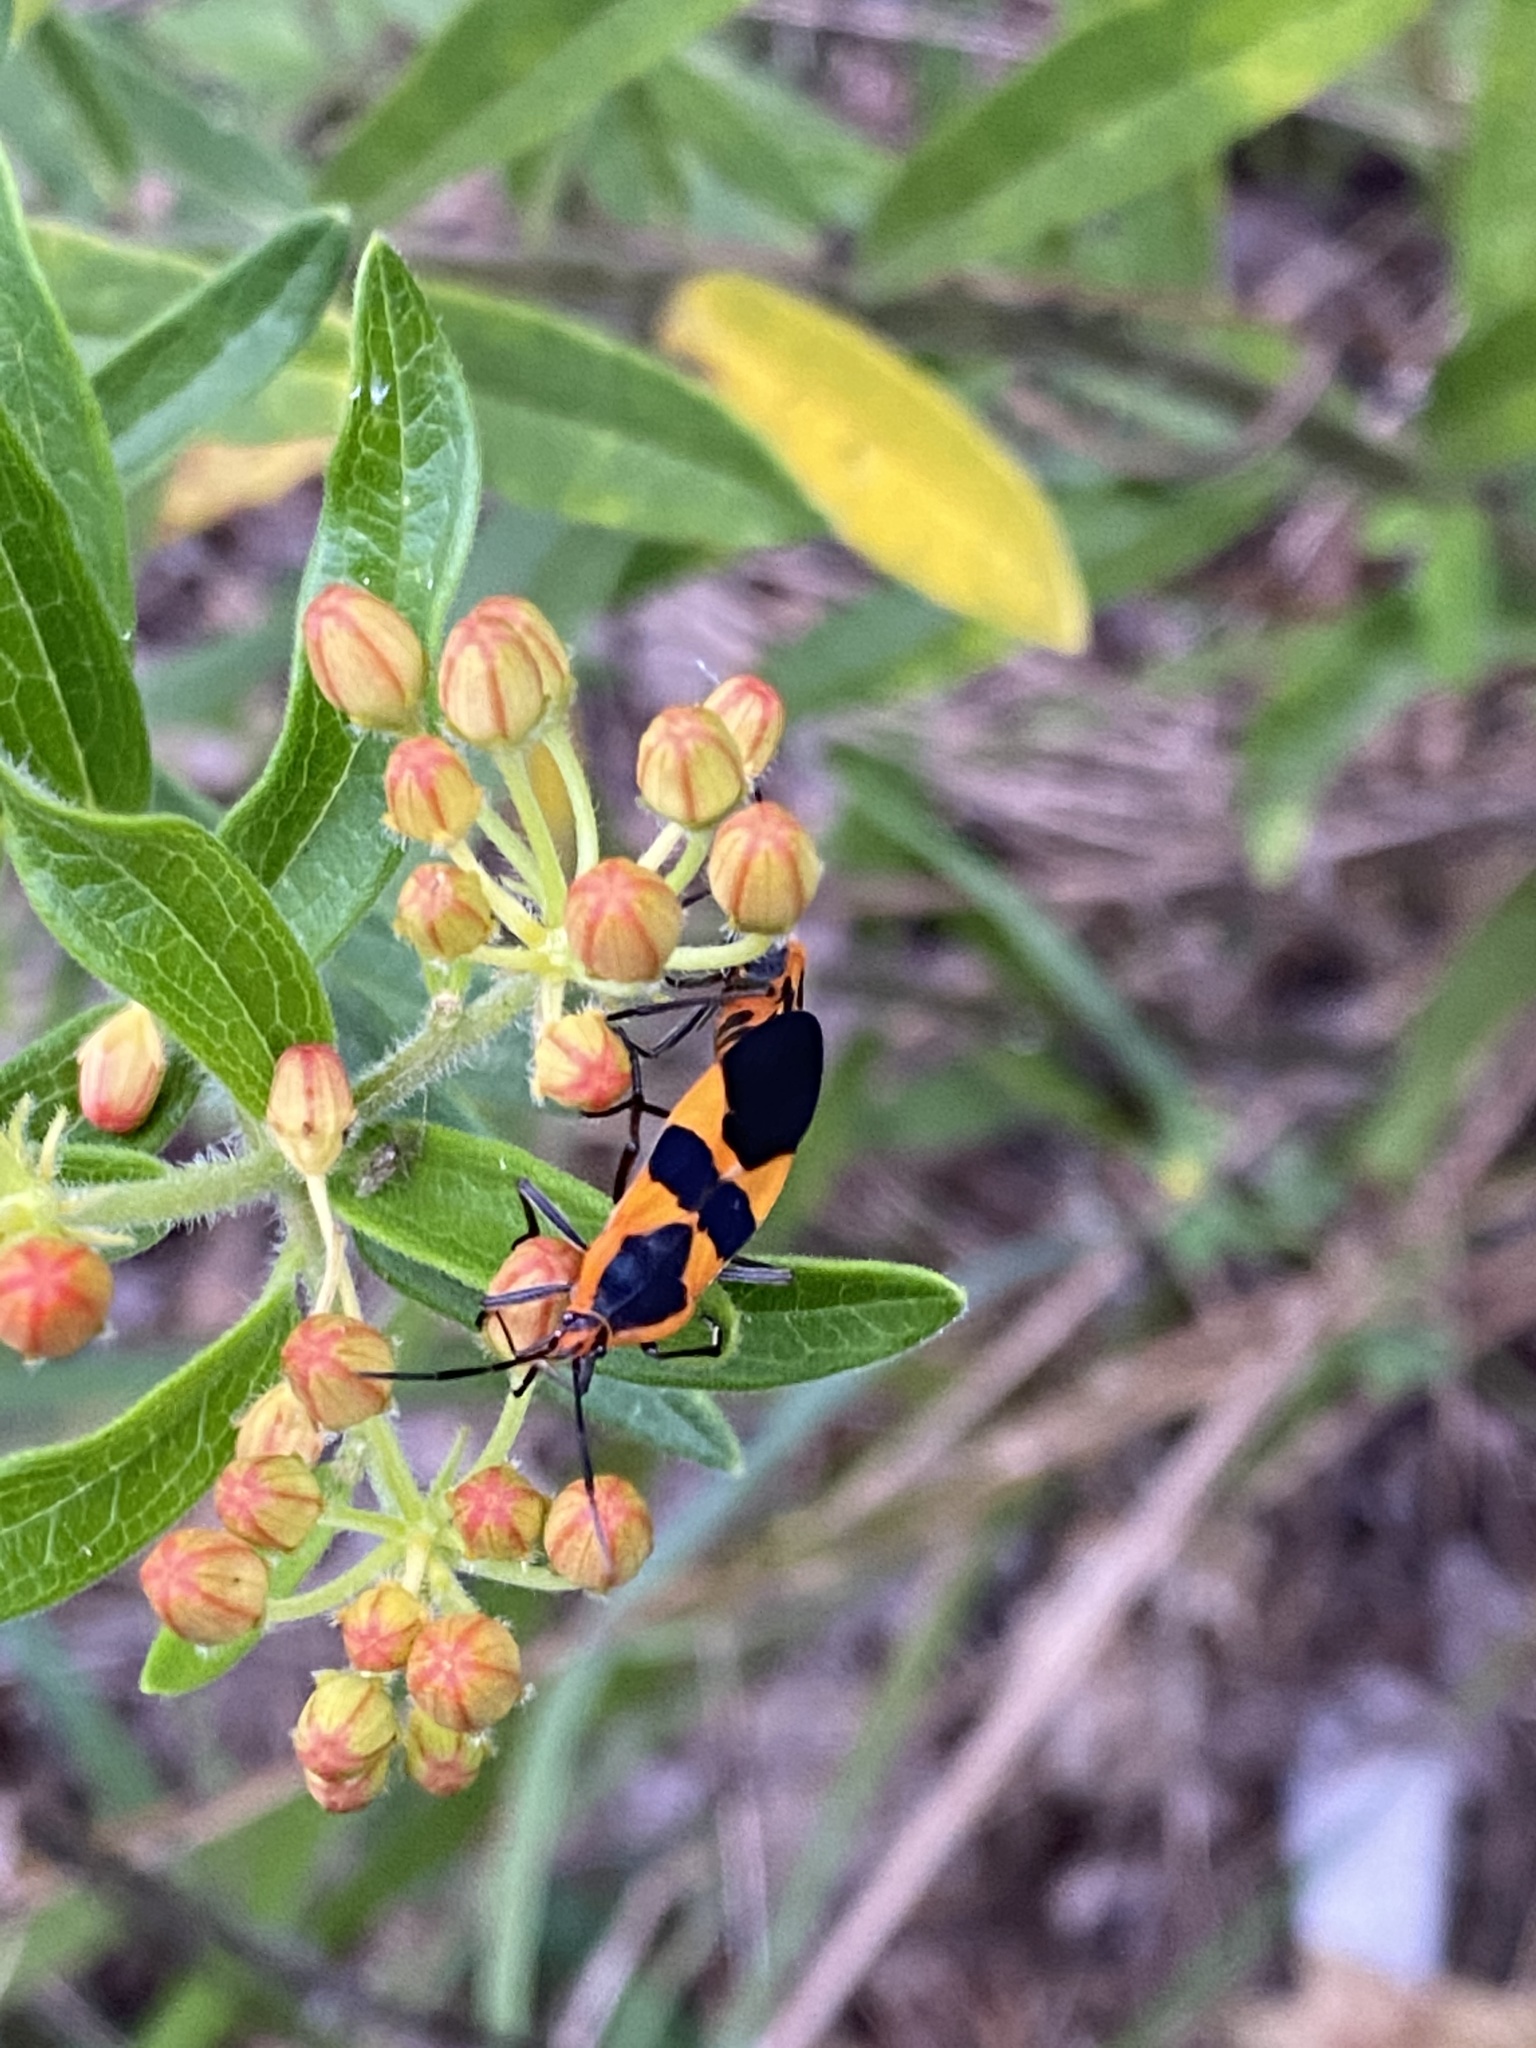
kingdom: Animalia
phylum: Arthropoda
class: Insecta
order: Hemiptera
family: Lygaeidae
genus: Oncopeltus
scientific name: Oncopeltus fasciatus
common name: Large milkweed bug
